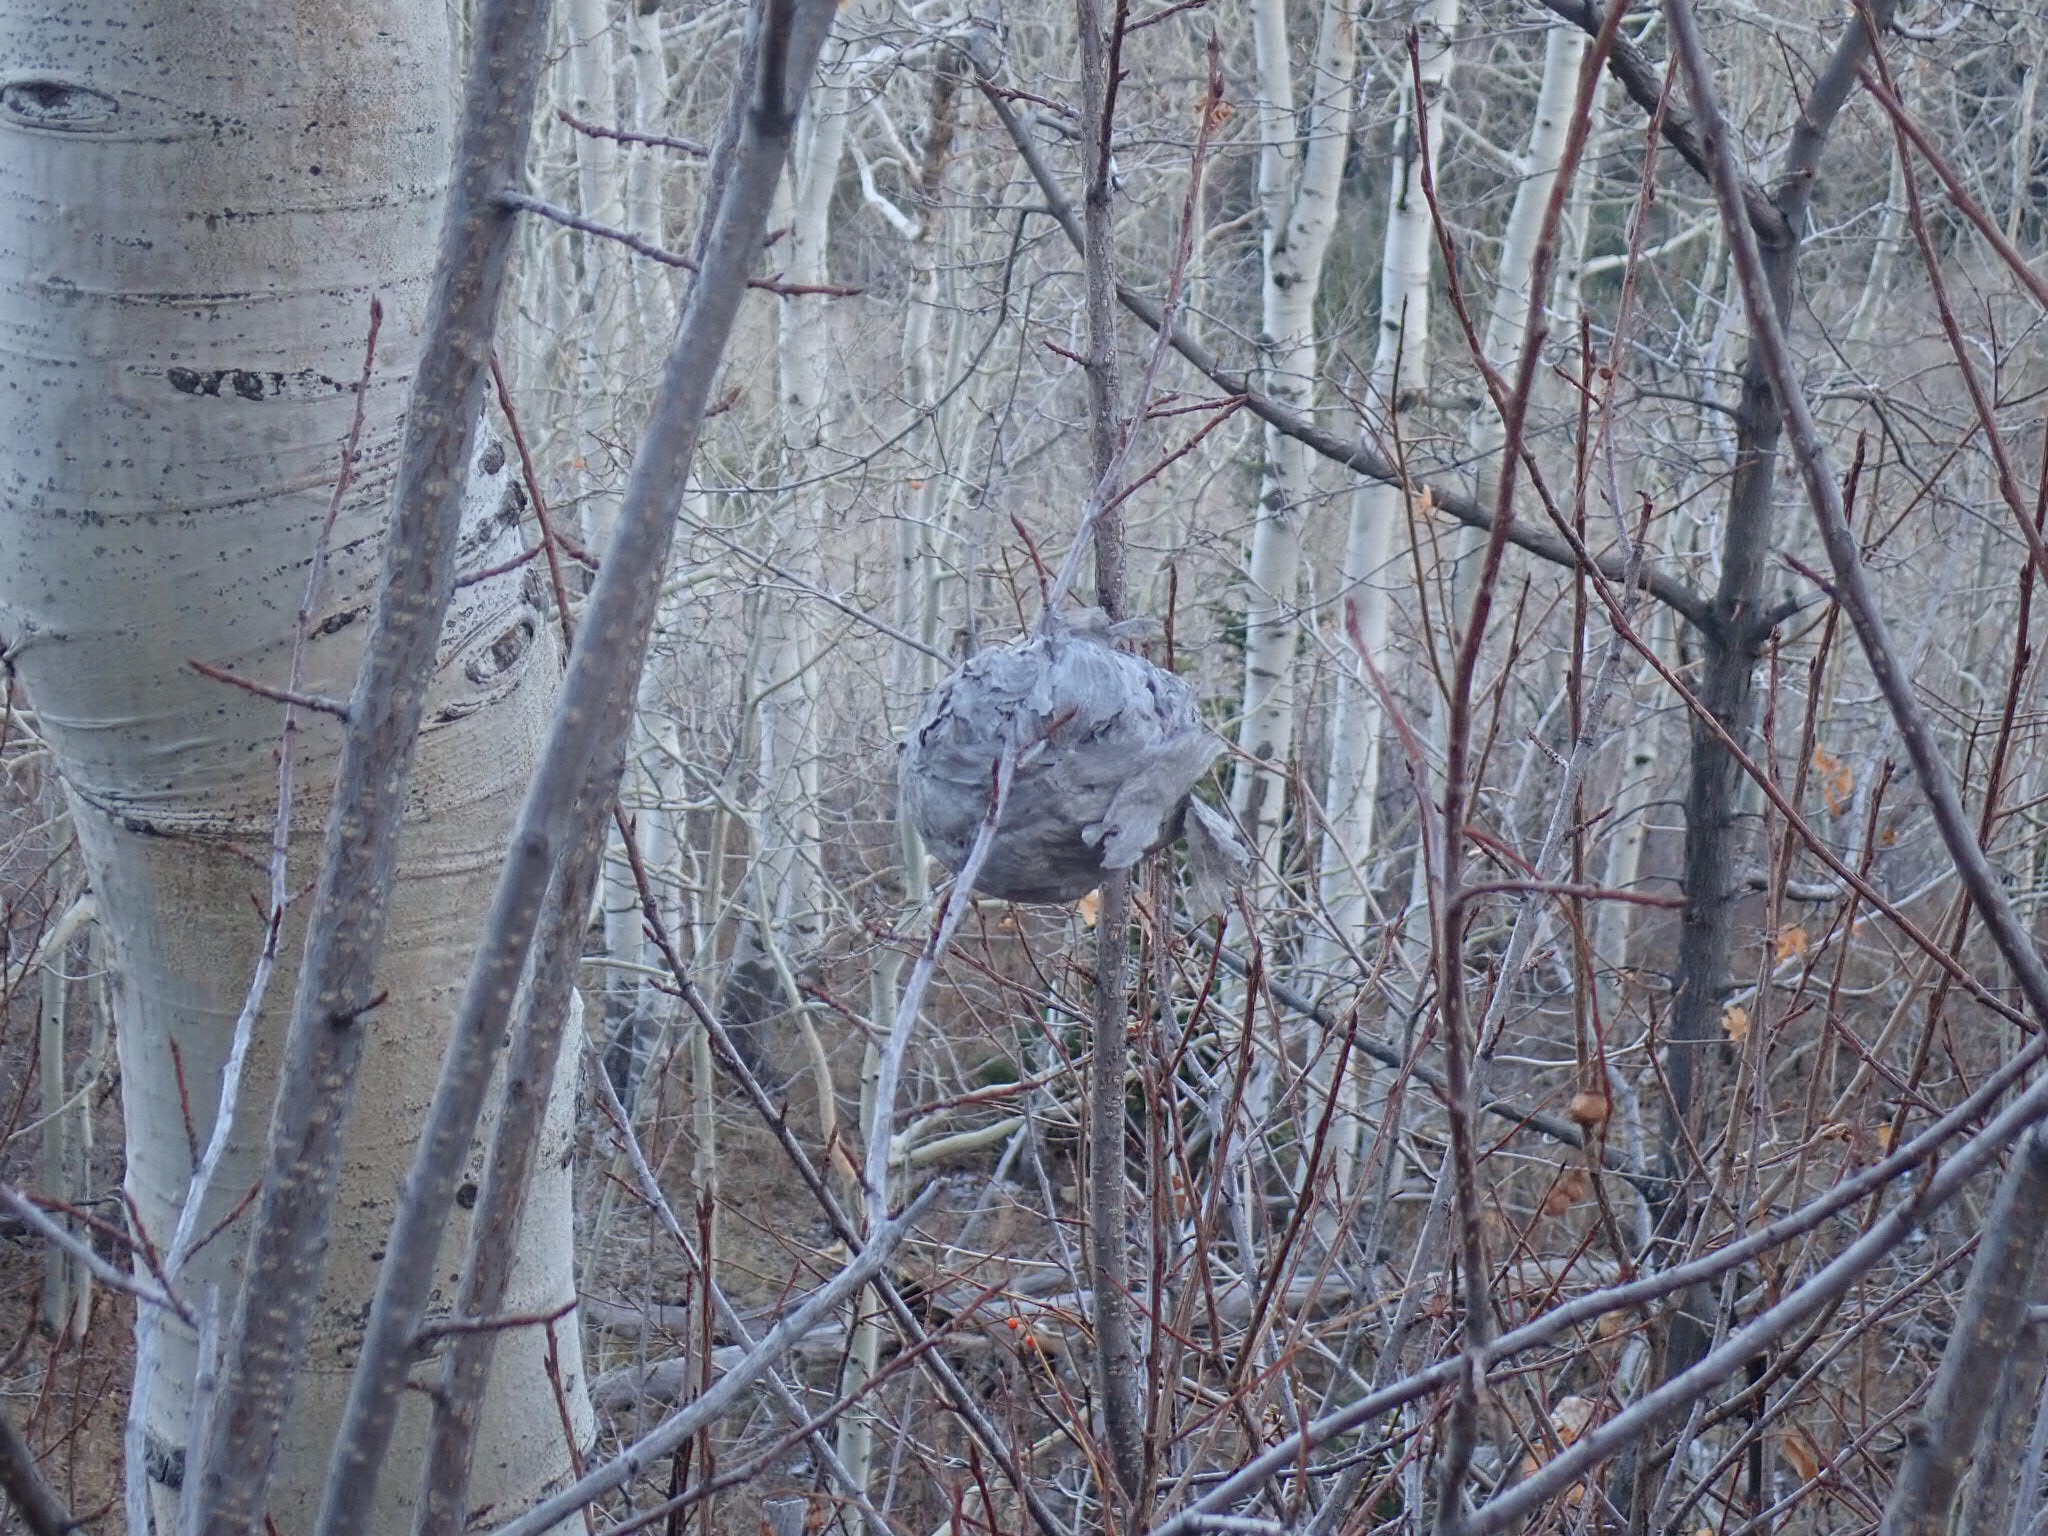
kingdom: Animalia
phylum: Arthropoda
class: Insecta
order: Hymenoptera
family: Vespidae
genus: Dolichovespula
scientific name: Dolichovespula
